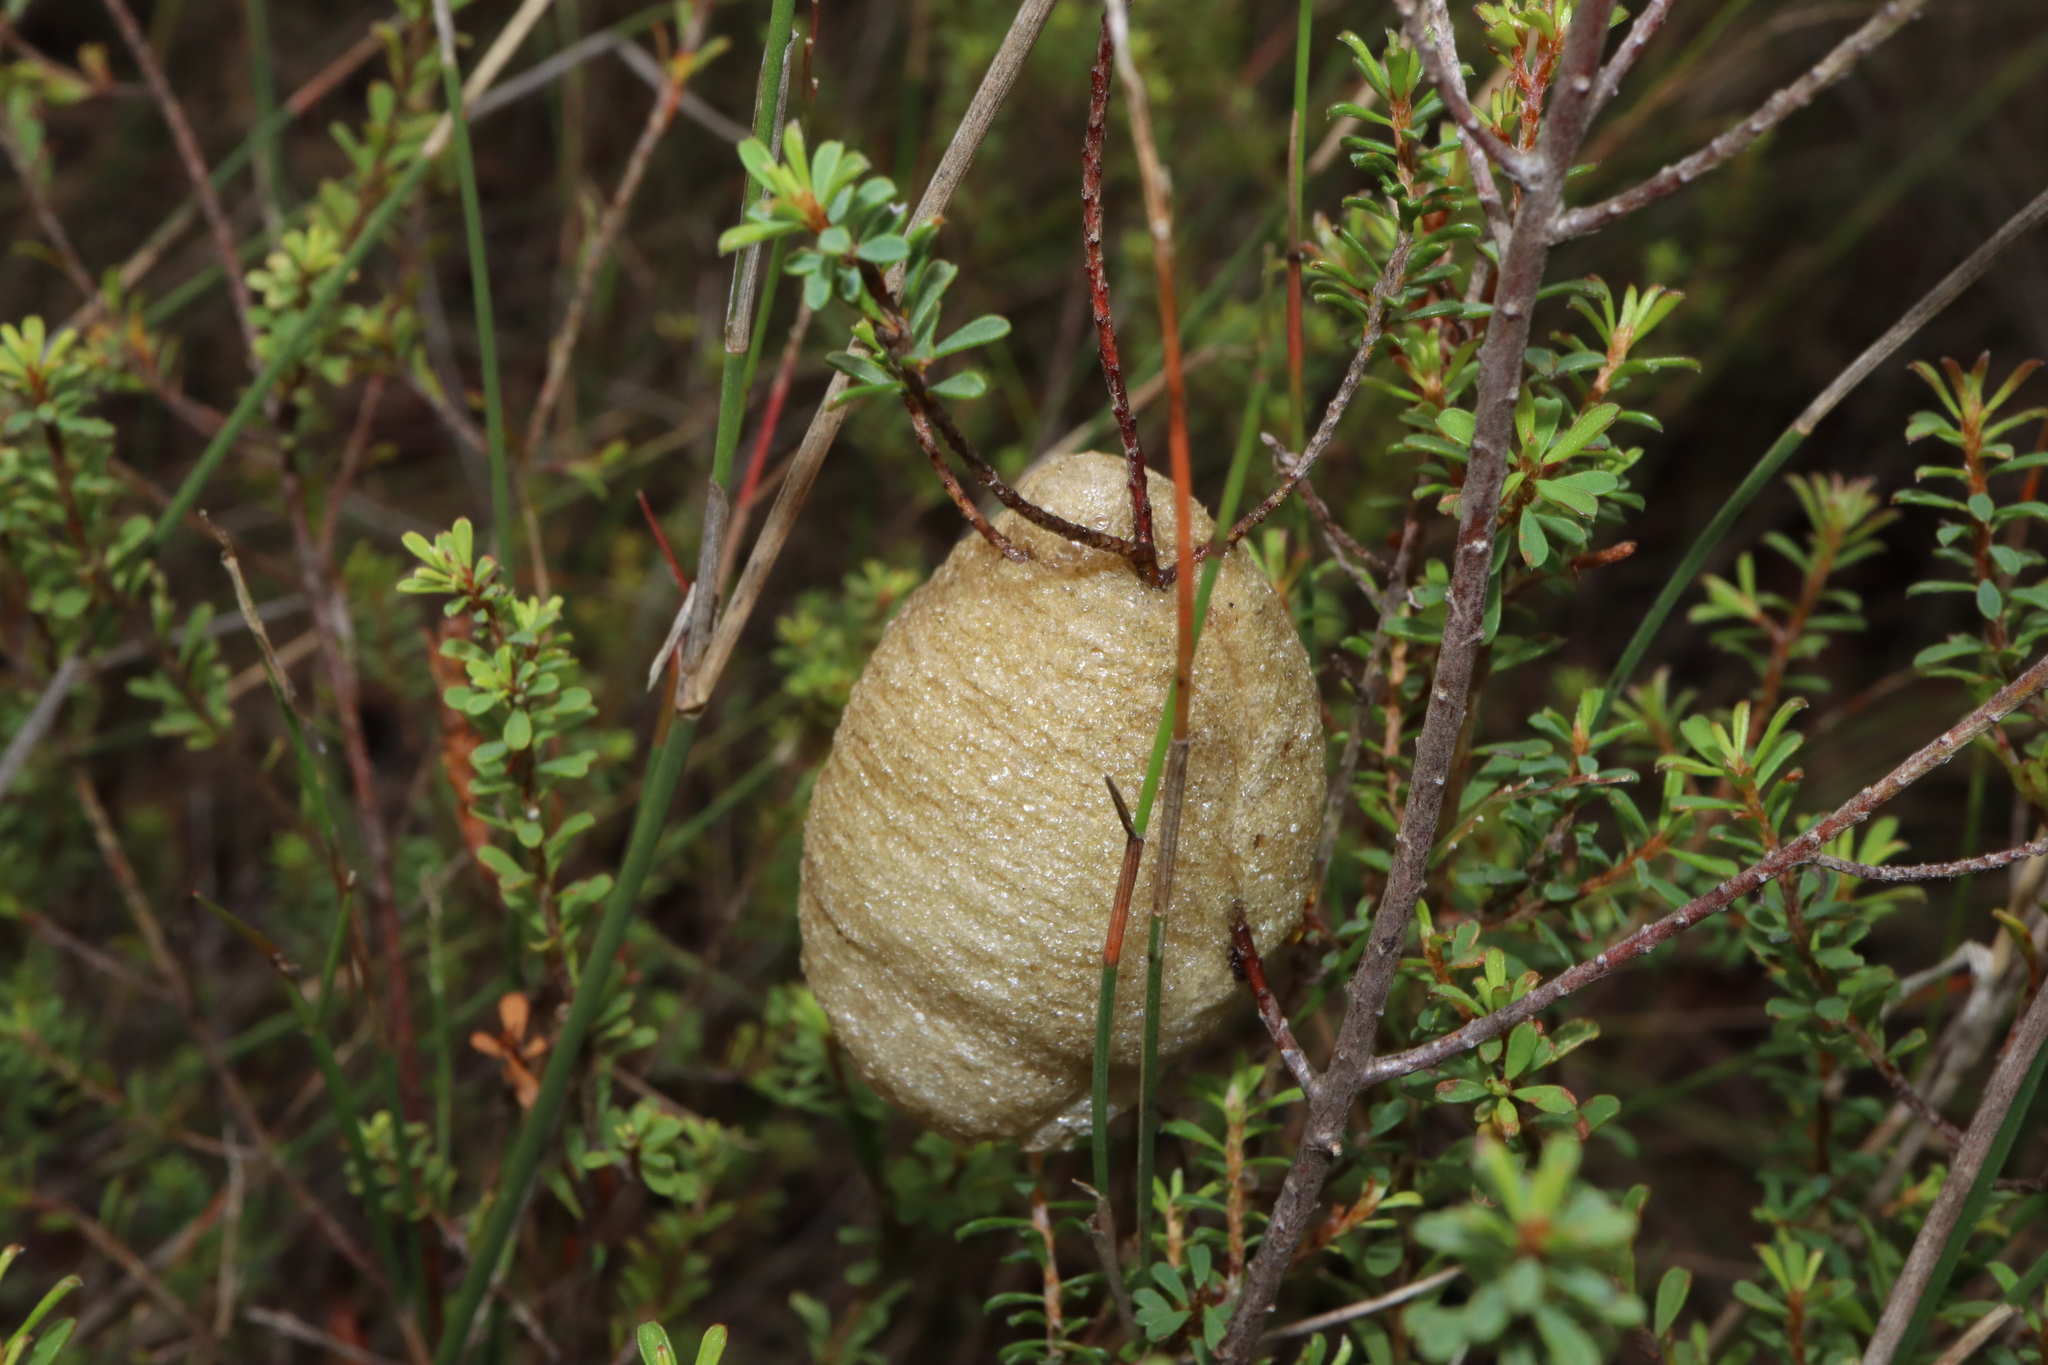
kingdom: Animalia
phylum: Arthropoda
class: Insecta
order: Mantodea
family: Mantidae
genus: Archimantis
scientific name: Archimantis latistyla
